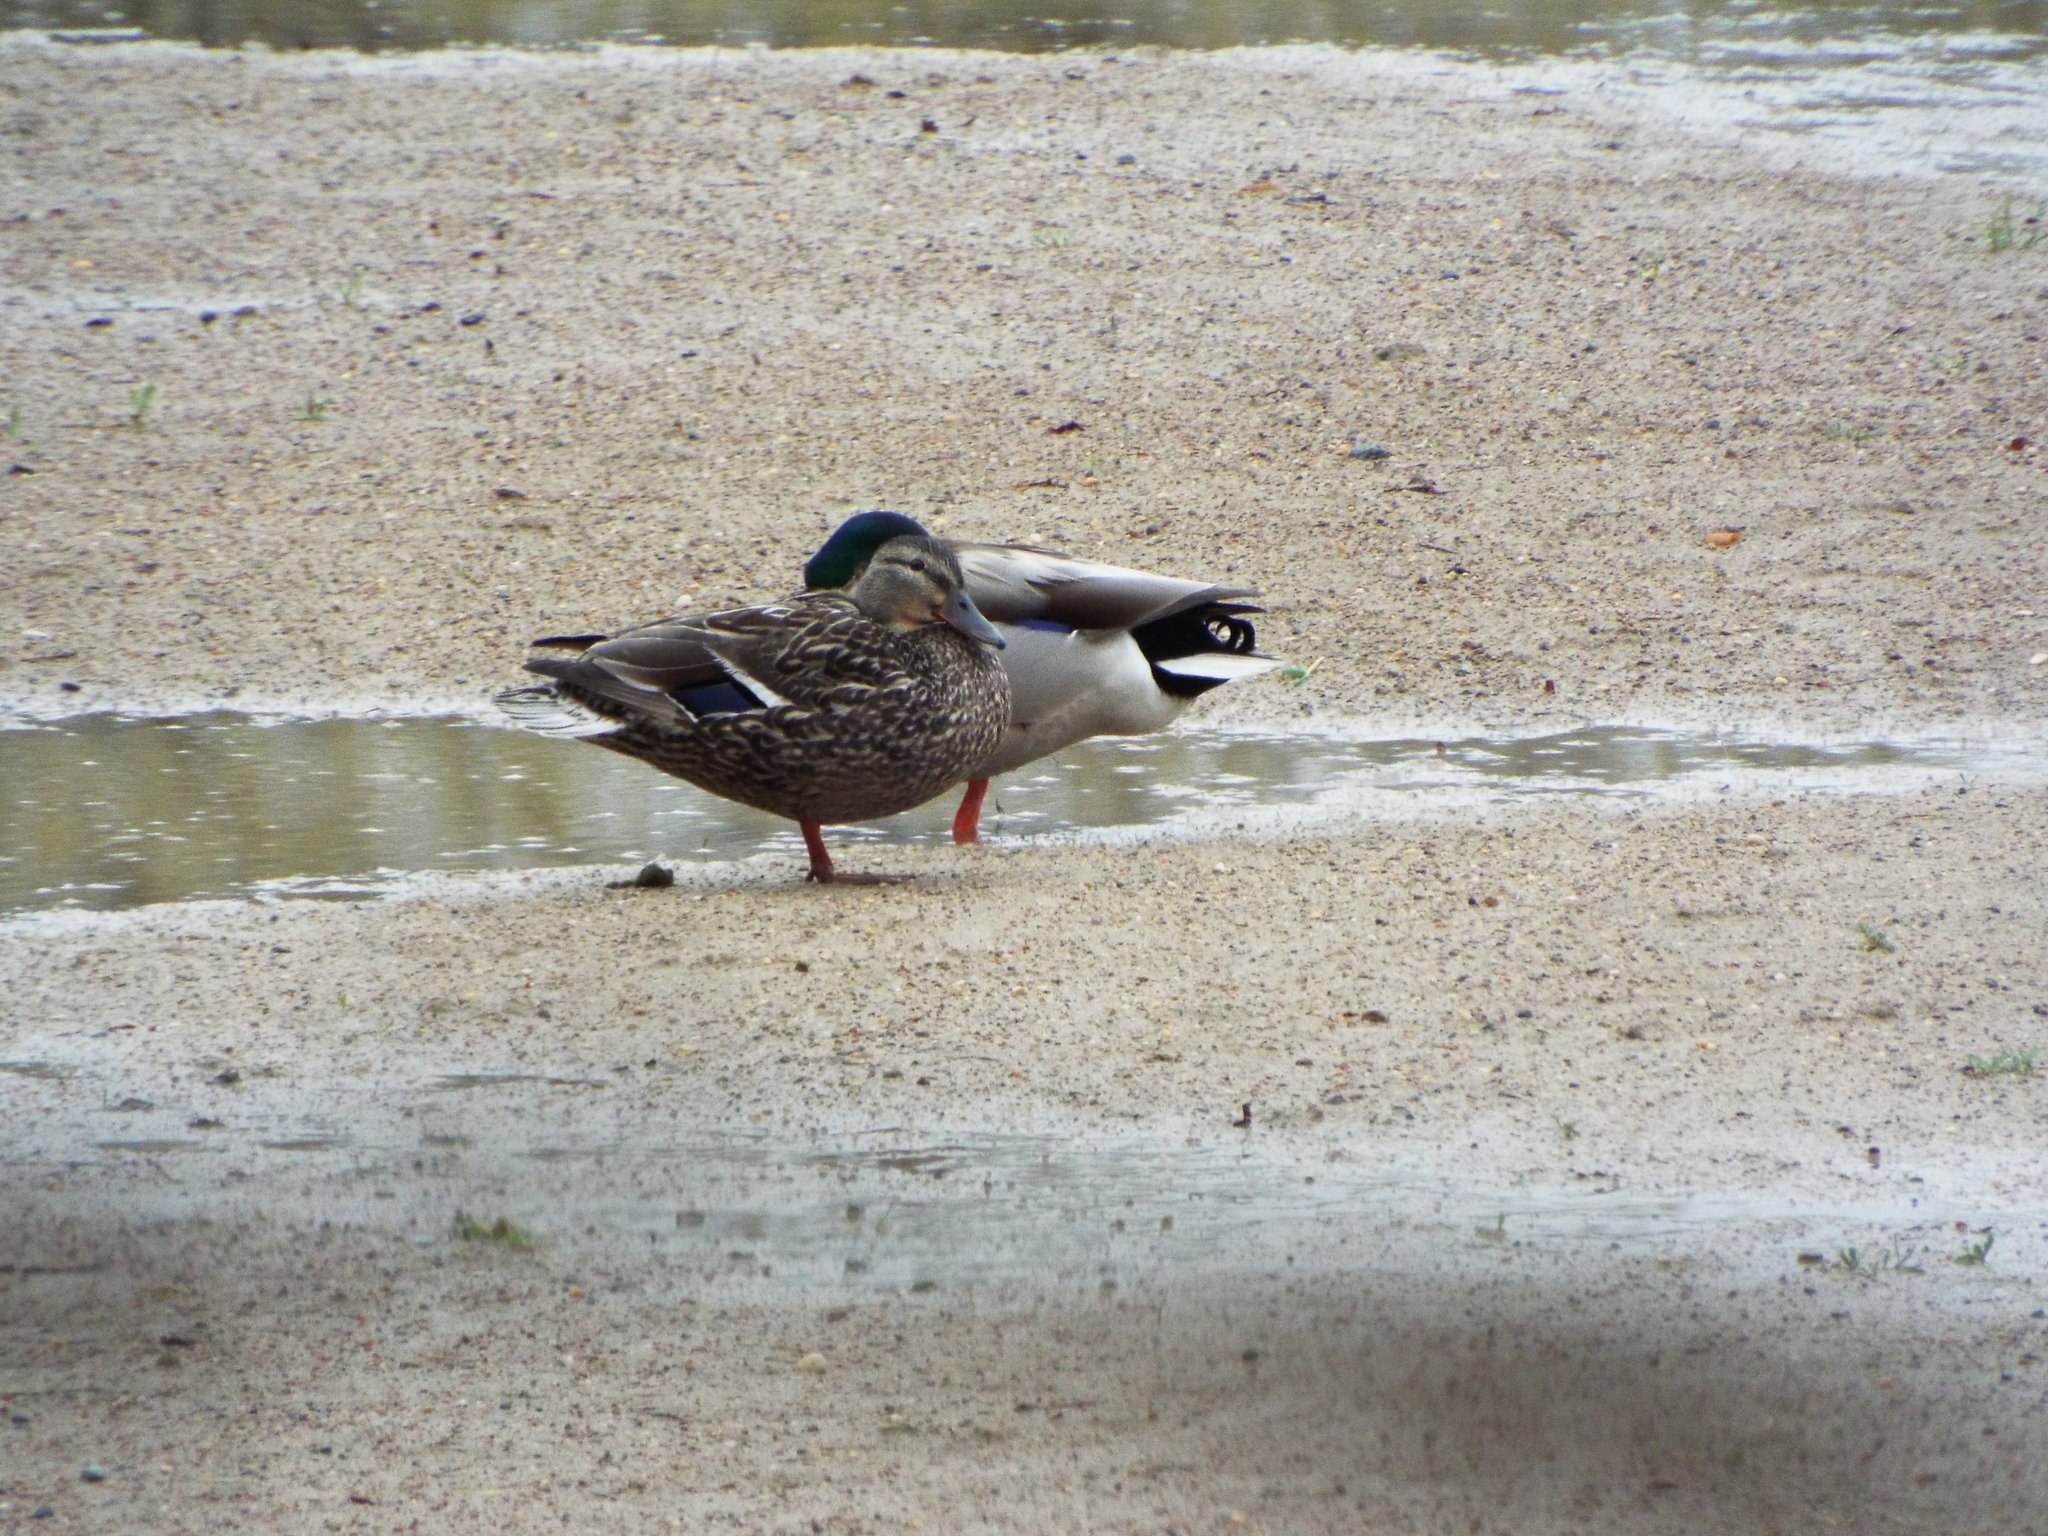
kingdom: Animalia
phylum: Chordata
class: Aves
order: Anseriformes
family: Anatidae
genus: Anas
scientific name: Anas platyrhynchos
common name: Mallard
